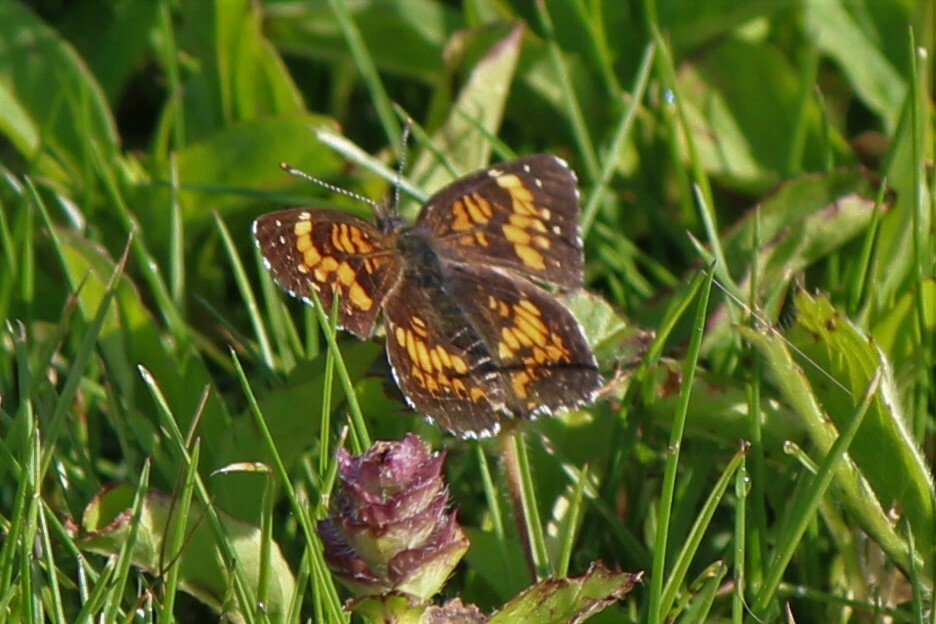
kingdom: Animalia
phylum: Arthropoda
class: Insecta
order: Lepidoptera
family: Nymphalidae
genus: Chlosyne
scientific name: Chlosyne harrisii
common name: Harris's checkerspot
